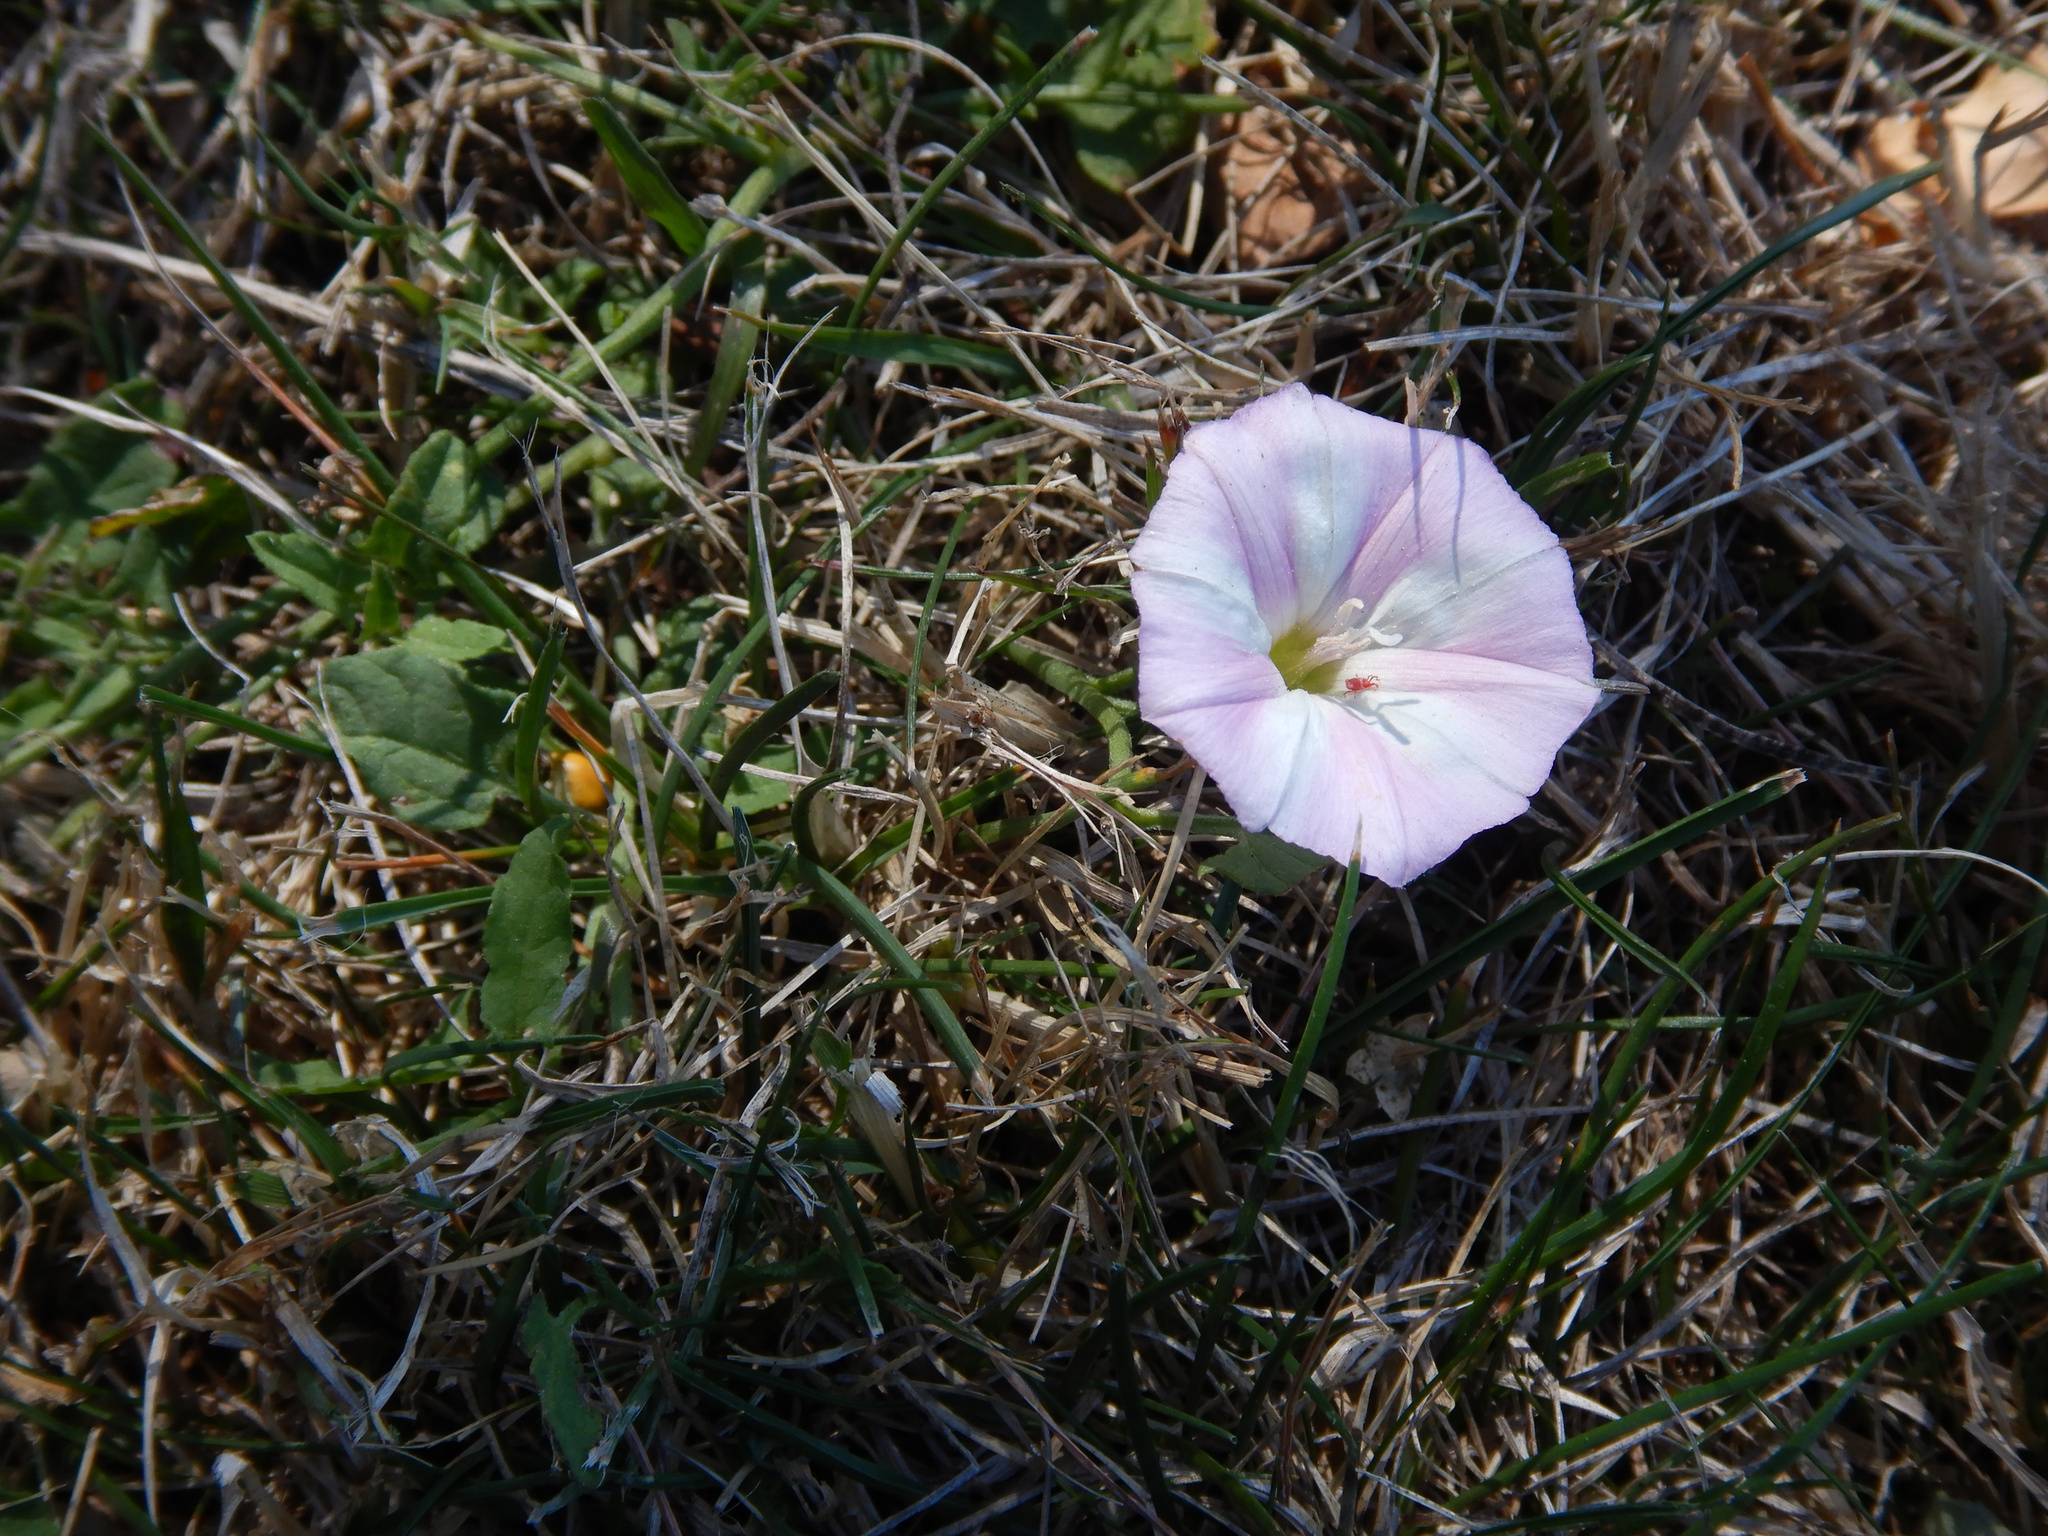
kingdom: Plantae
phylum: Tracheophyta
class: Magnoliopsida
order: Solanales
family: Convolvulaceae
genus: Convolvulus
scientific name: Convolvulus arvensis
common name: Field bindweed
